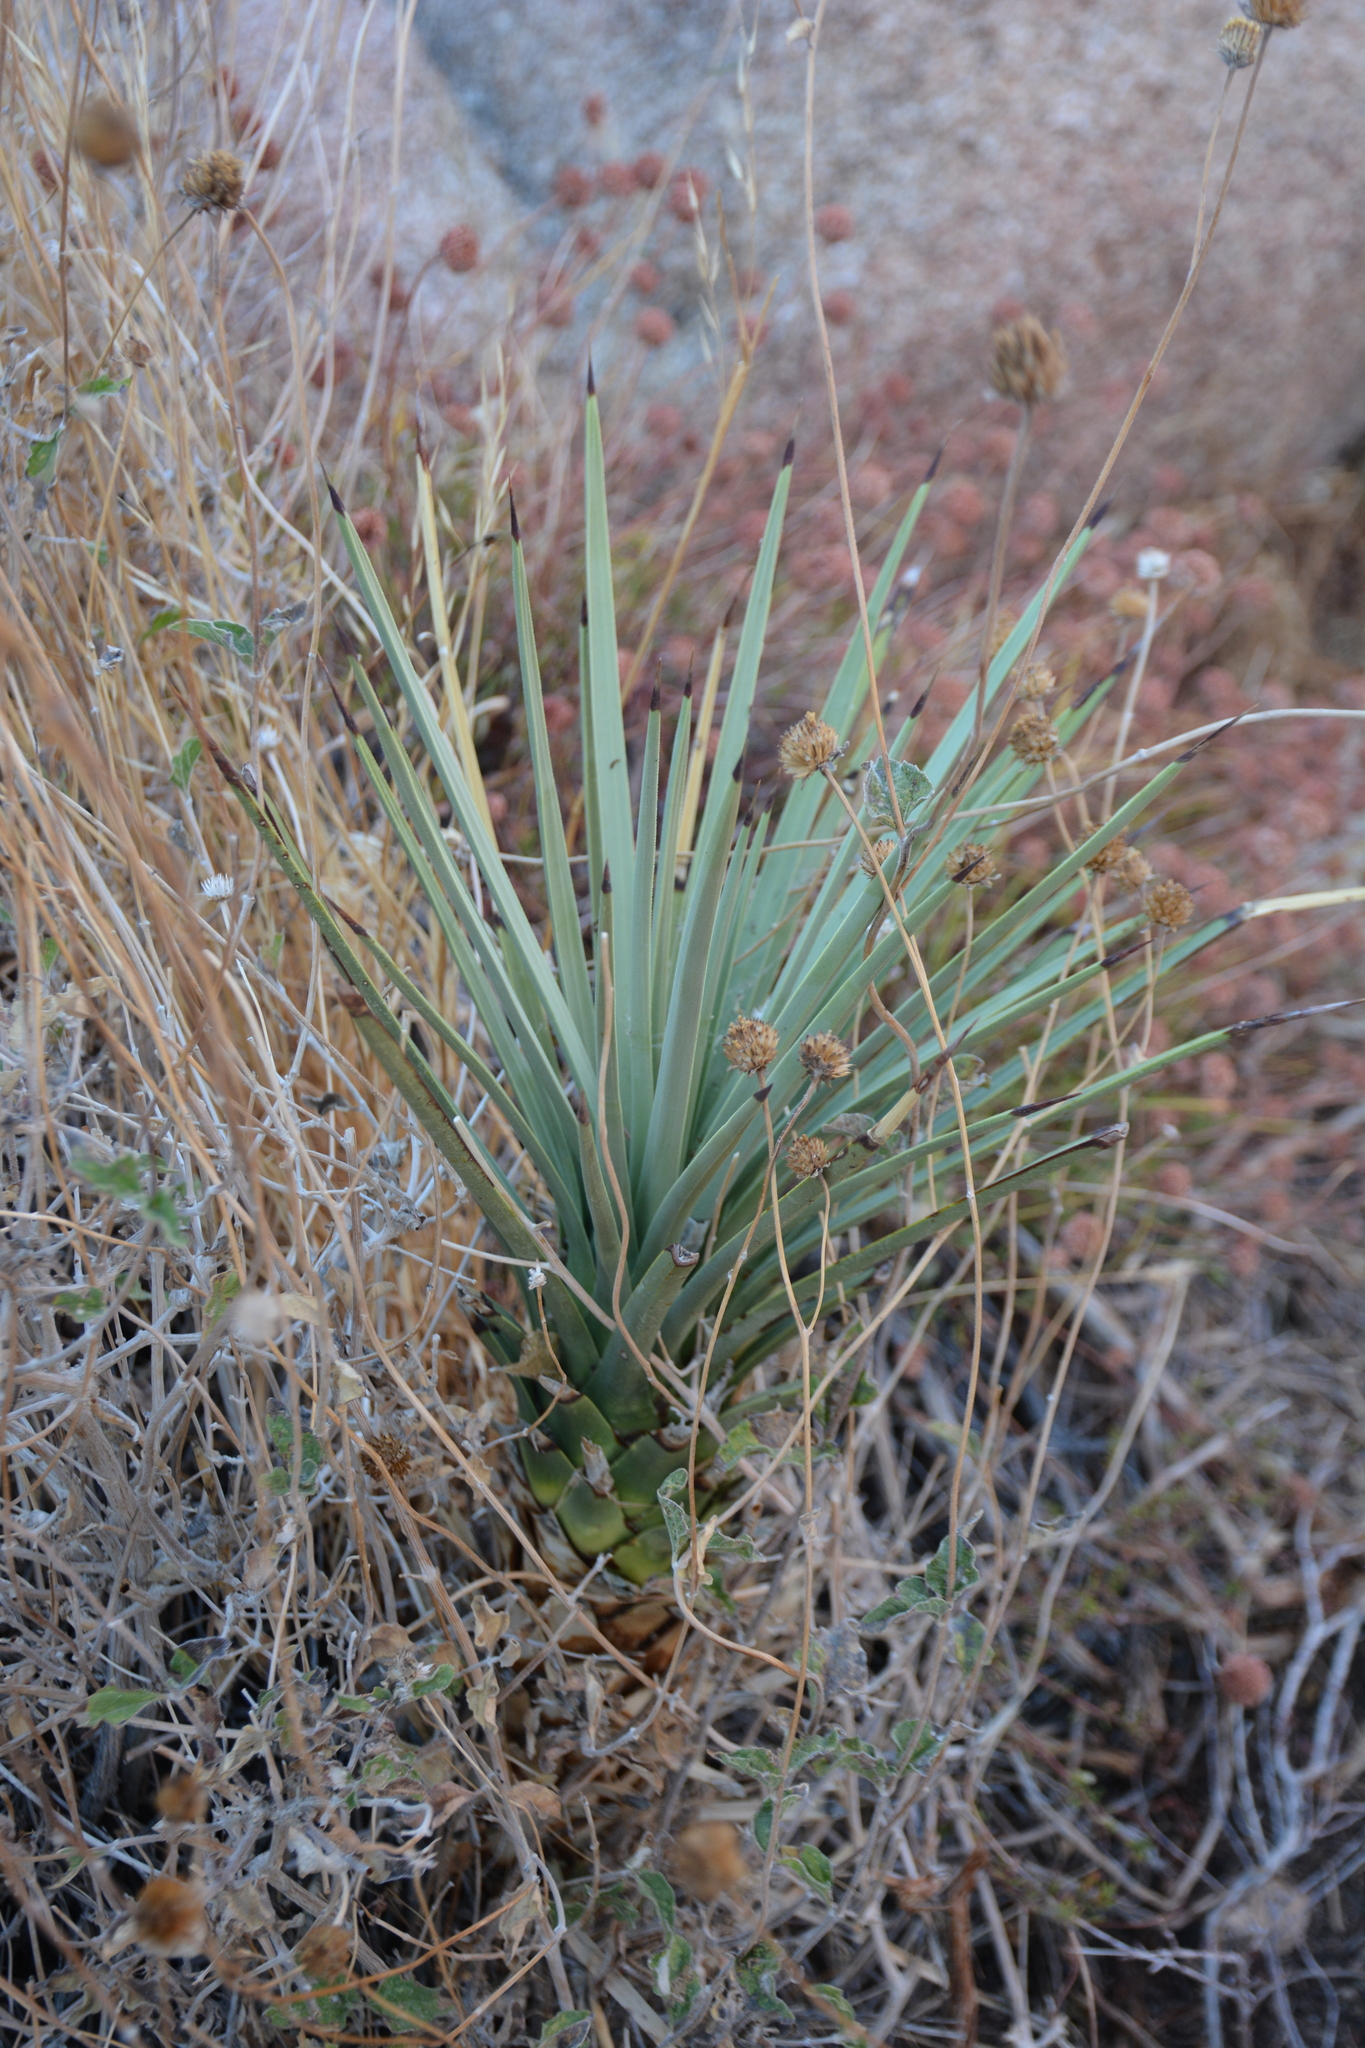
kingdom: Plantae
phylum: Tracheophyta
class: Liliopsida
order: Asparagales
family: Asparagaceae
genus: Yucca
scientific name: Yucca brevifolia
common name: Joshua tree
